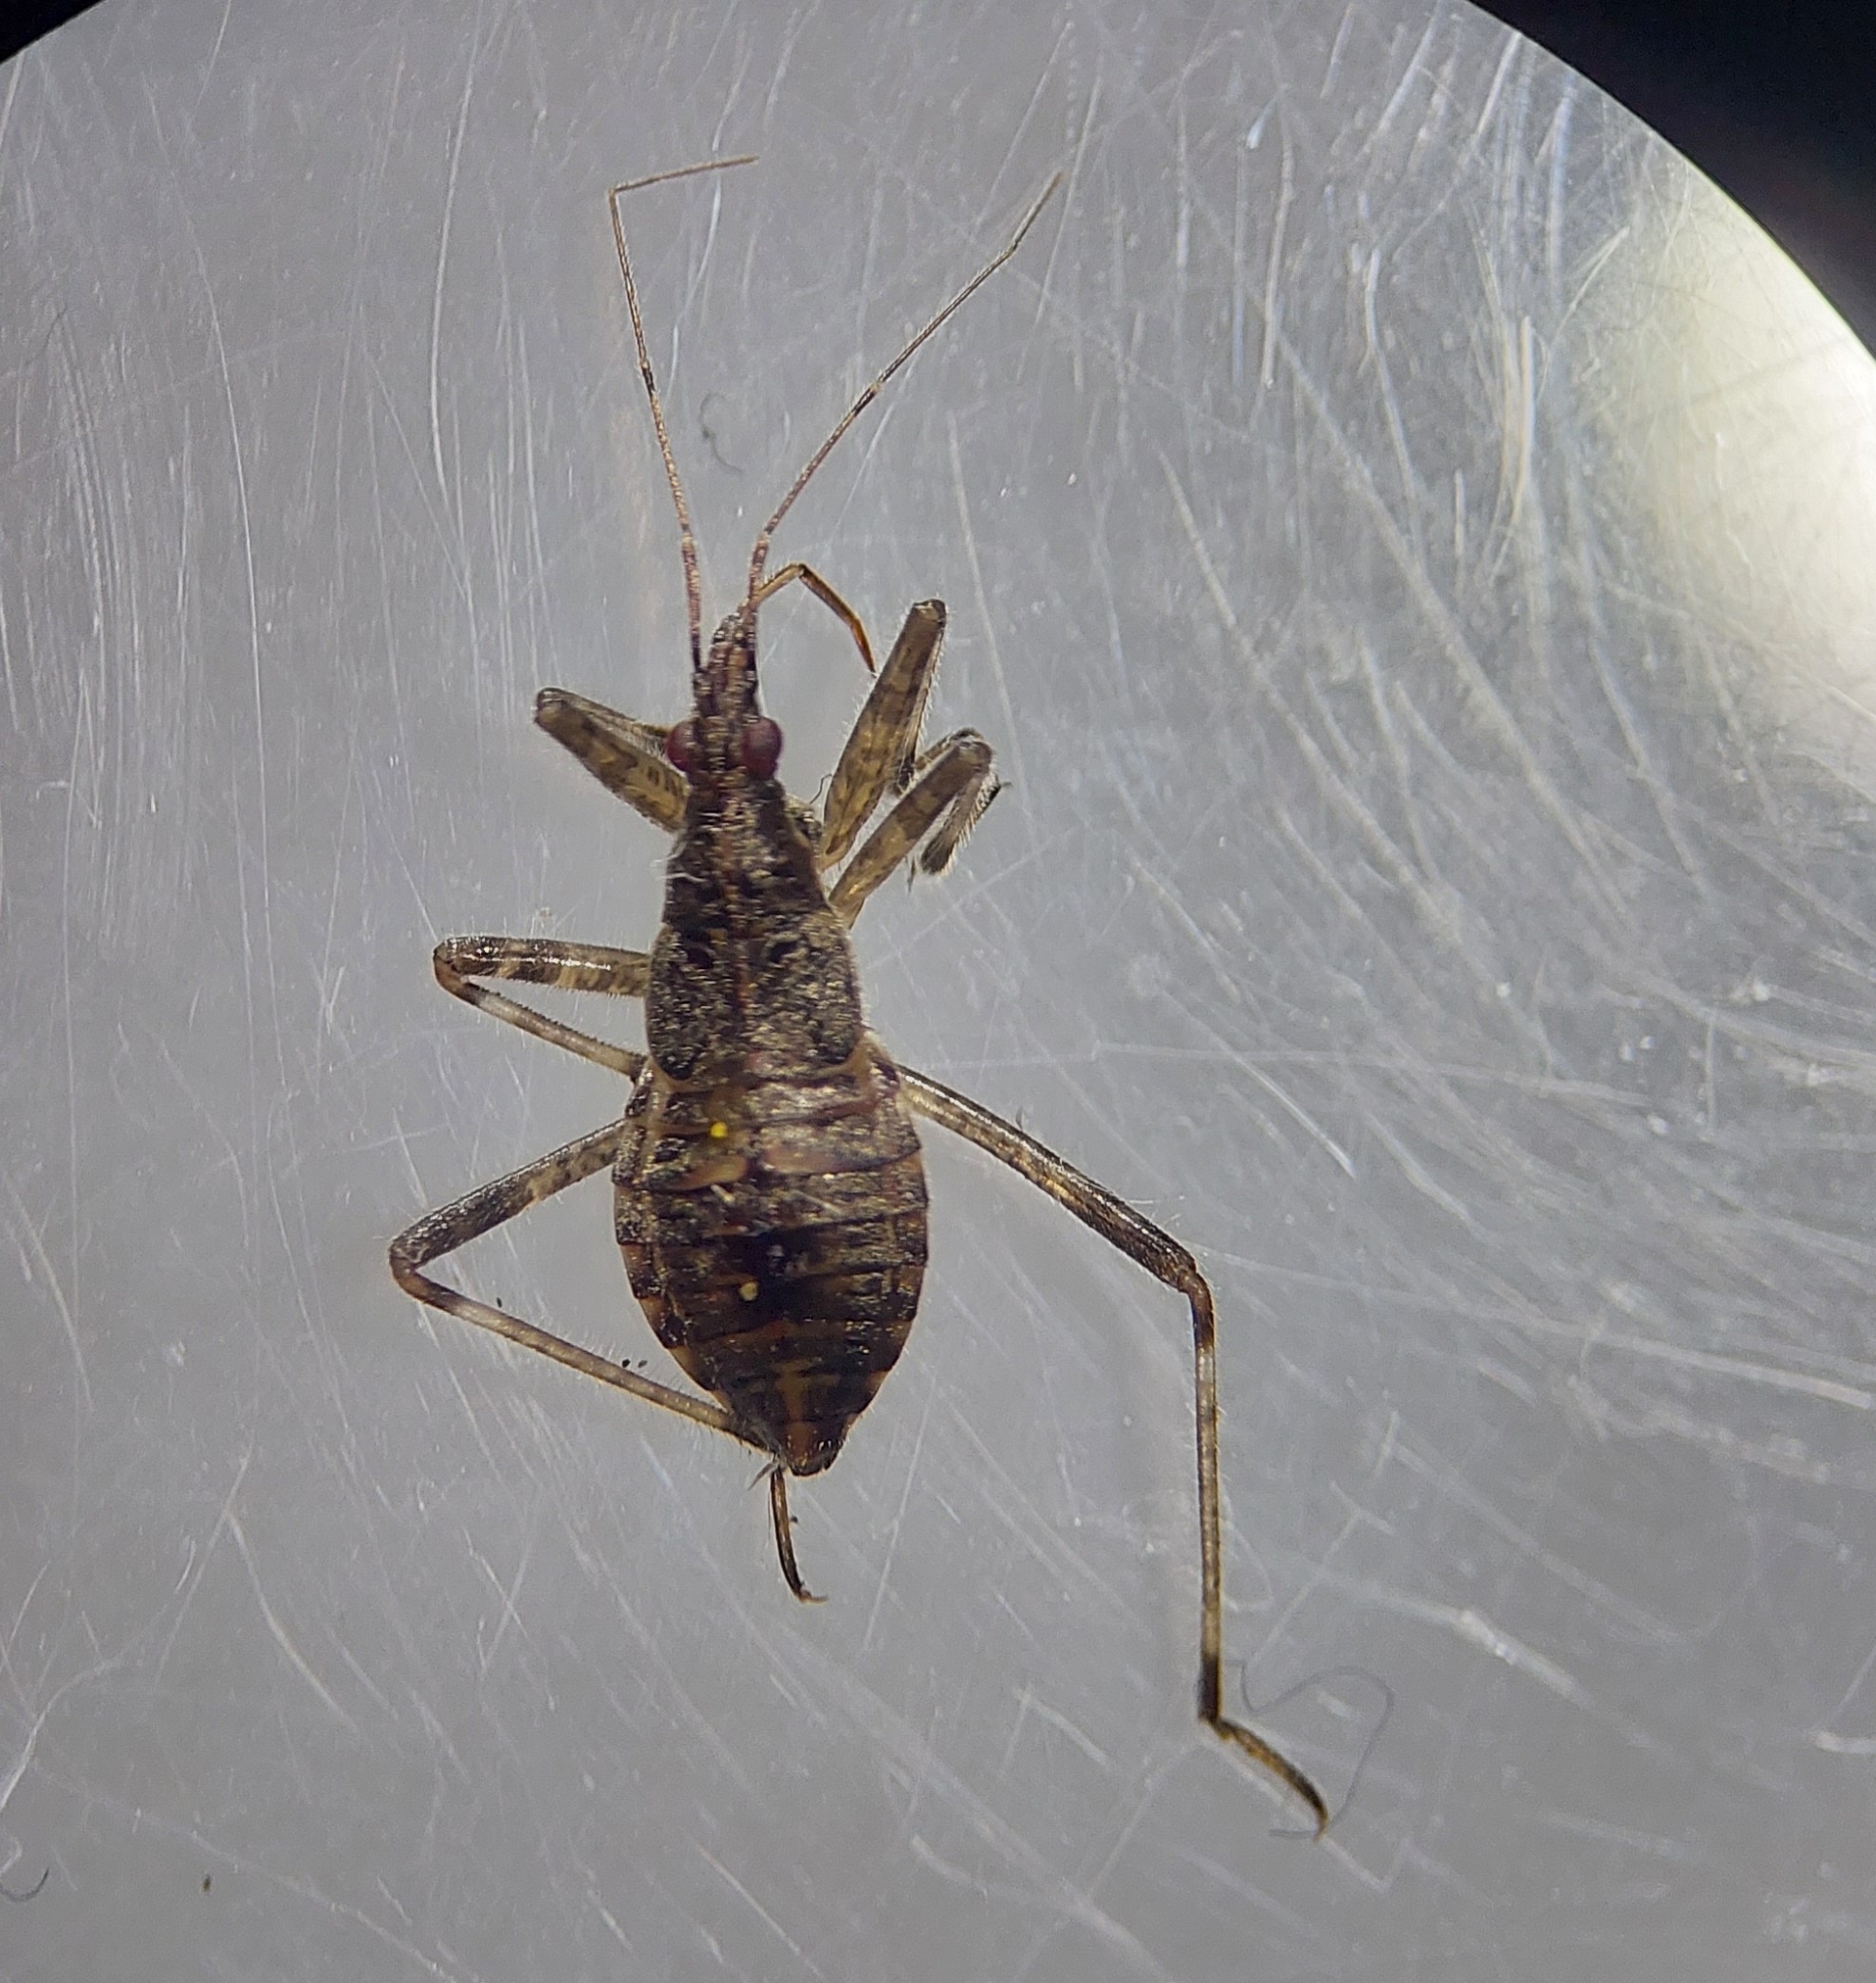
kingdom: Animalia
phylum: Arthropoda
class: Insecta
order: Hemiptera
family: Nabidae
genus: Himacerus
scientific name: Himacerus apterus
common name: Tree damsel bug
